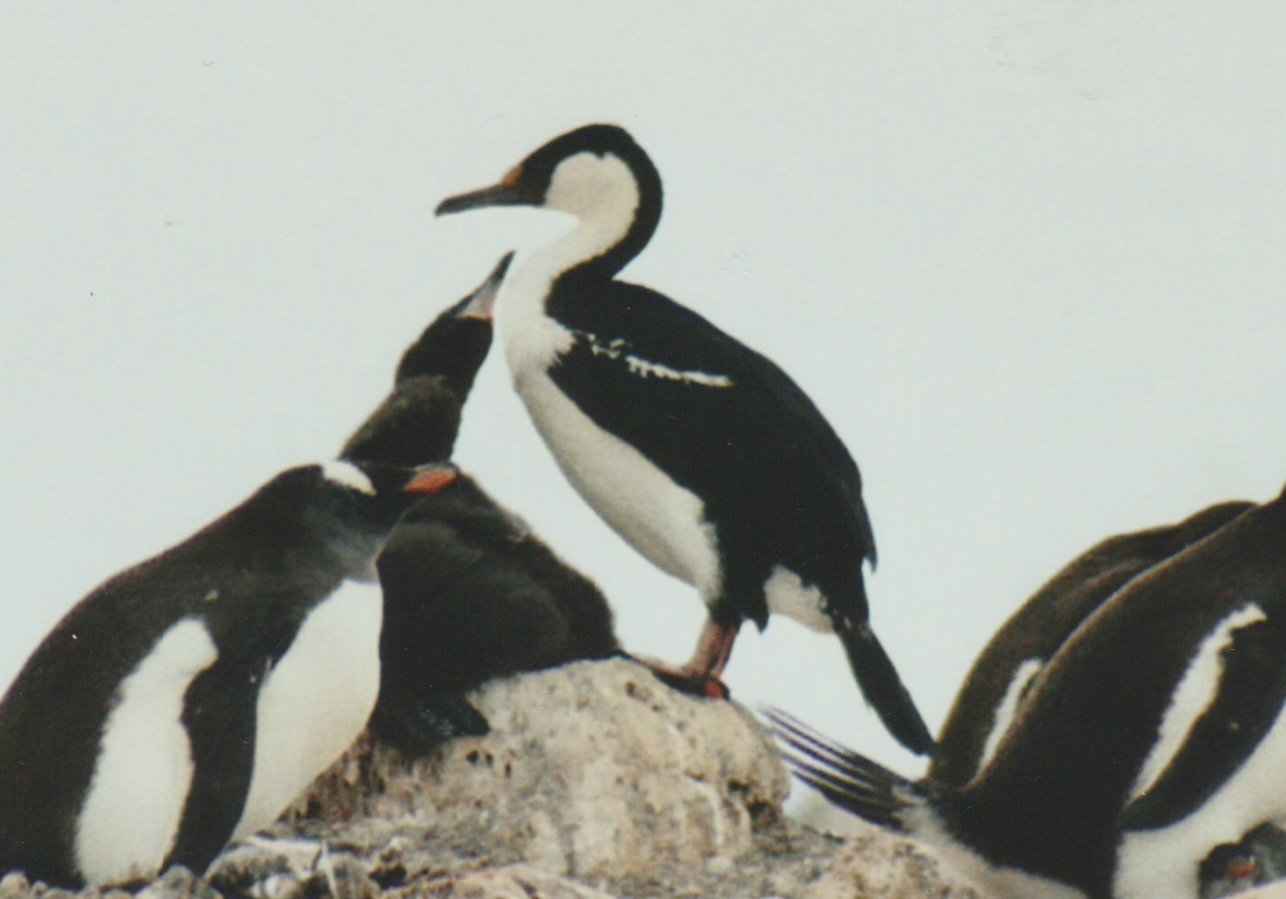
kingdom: Animalia
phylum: Chordata
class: Aves
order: Suliformes
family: Phalacrocoracidae
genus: Leucocarbo
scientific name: Leucocarbo atriceps
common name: Imperial shag
